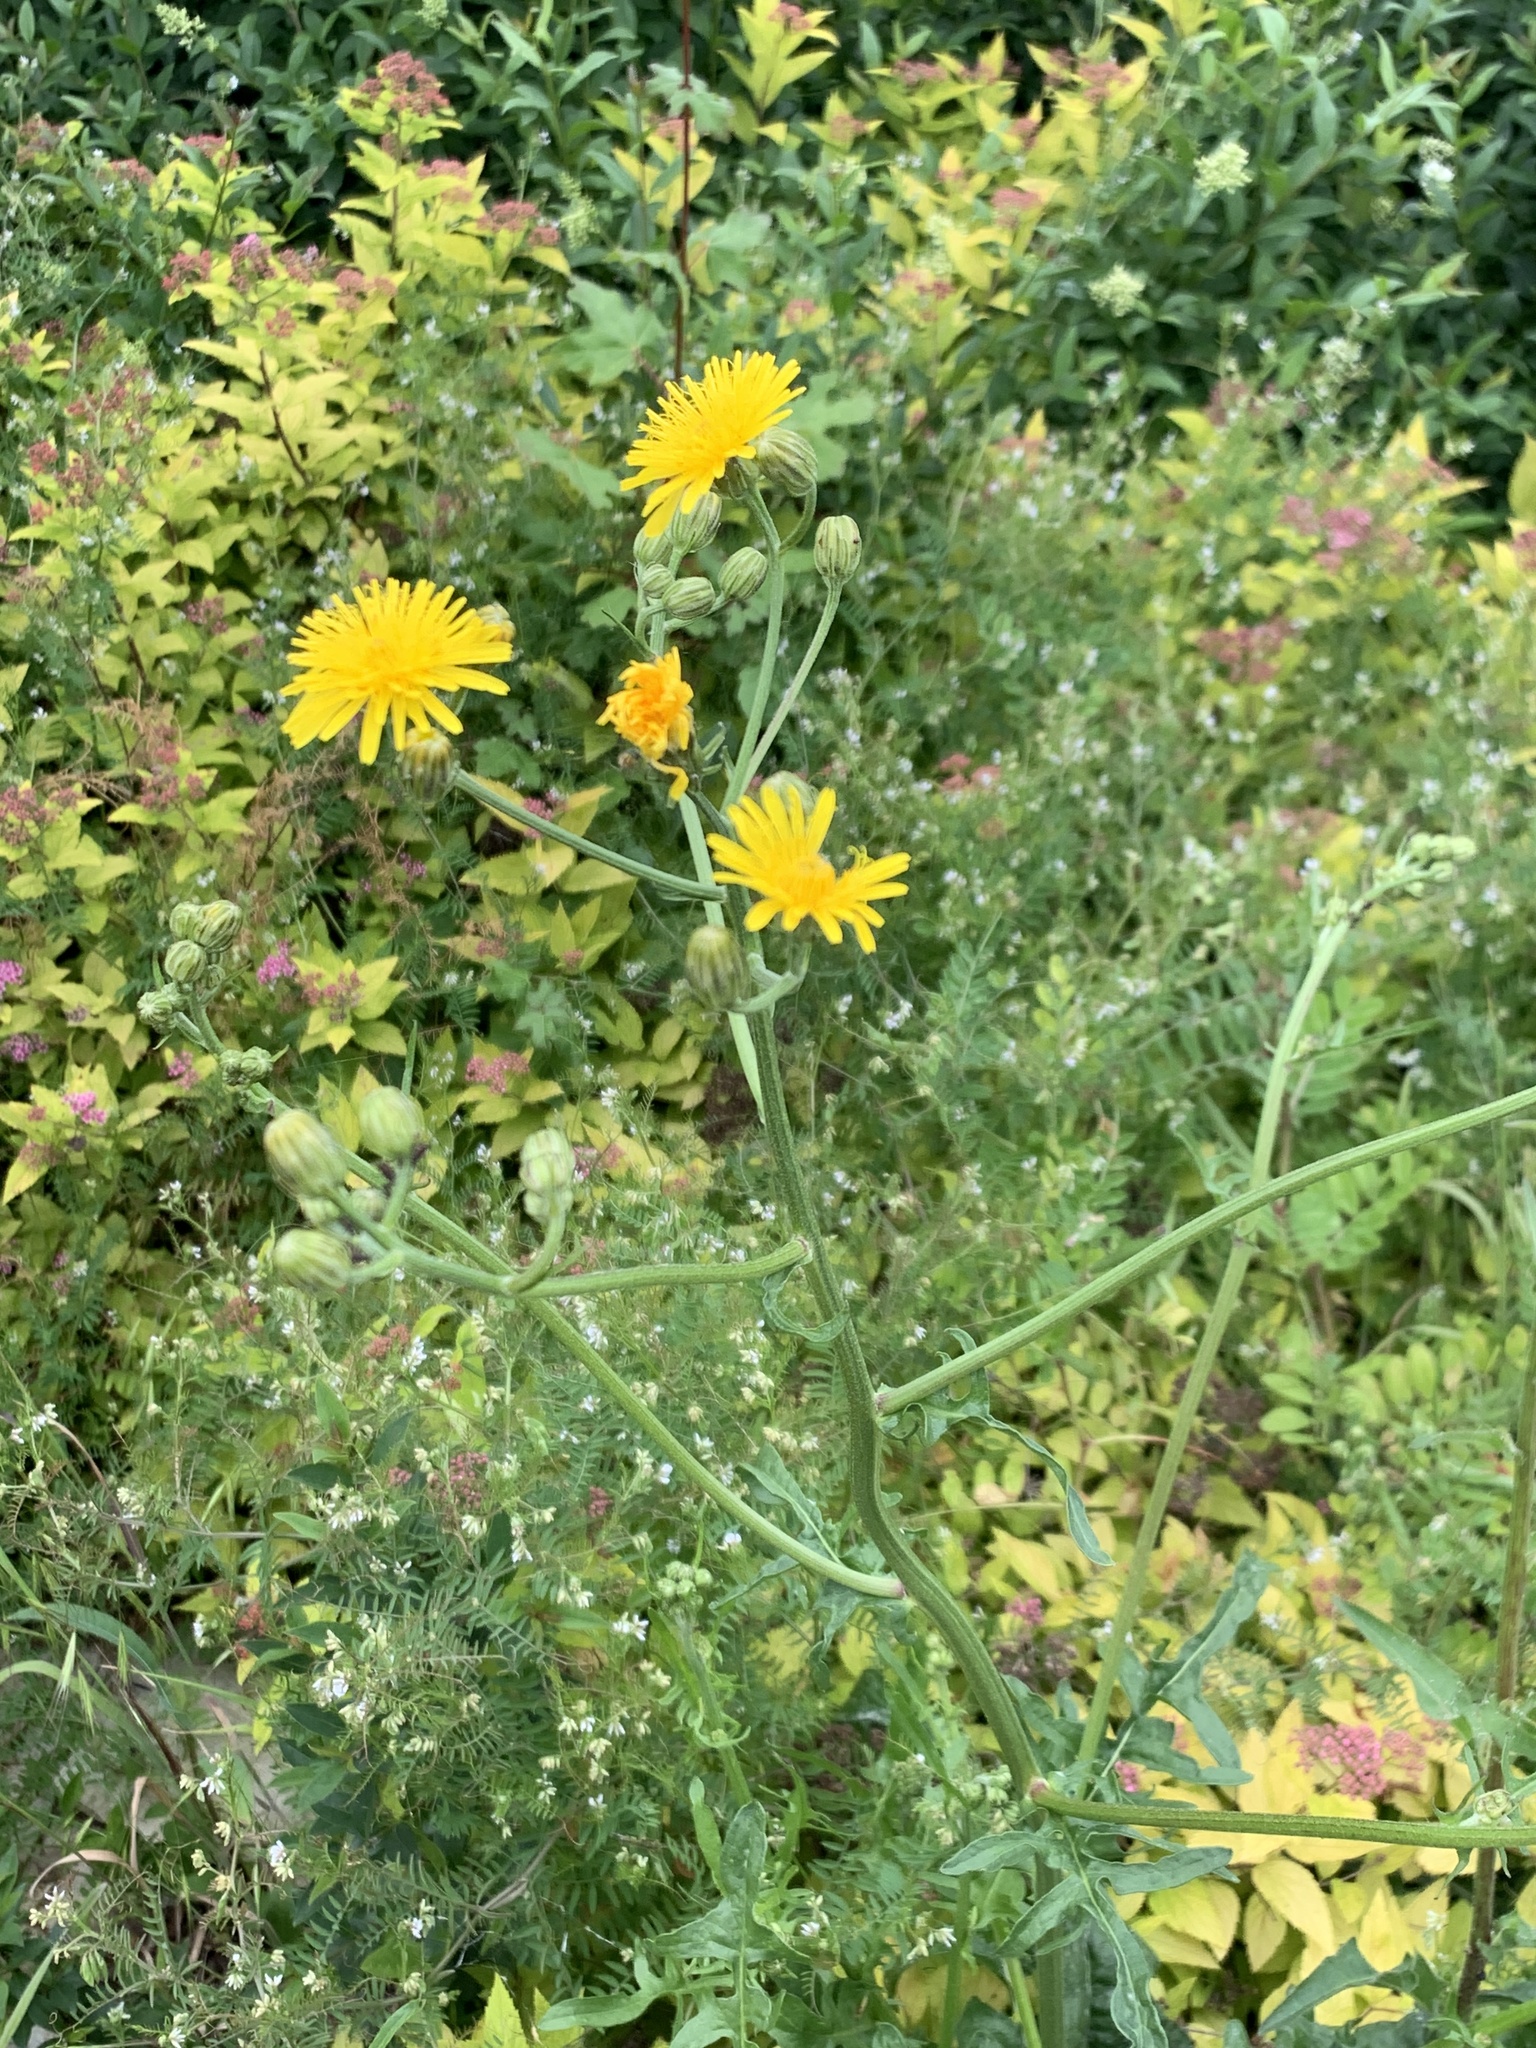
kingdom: Plantae
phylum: Tracheophyta
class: Magnoliopsida
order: Asterales
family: Asteraceae
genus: Crepis
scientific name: Crepis biennis
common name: Rough hawk's-beard
